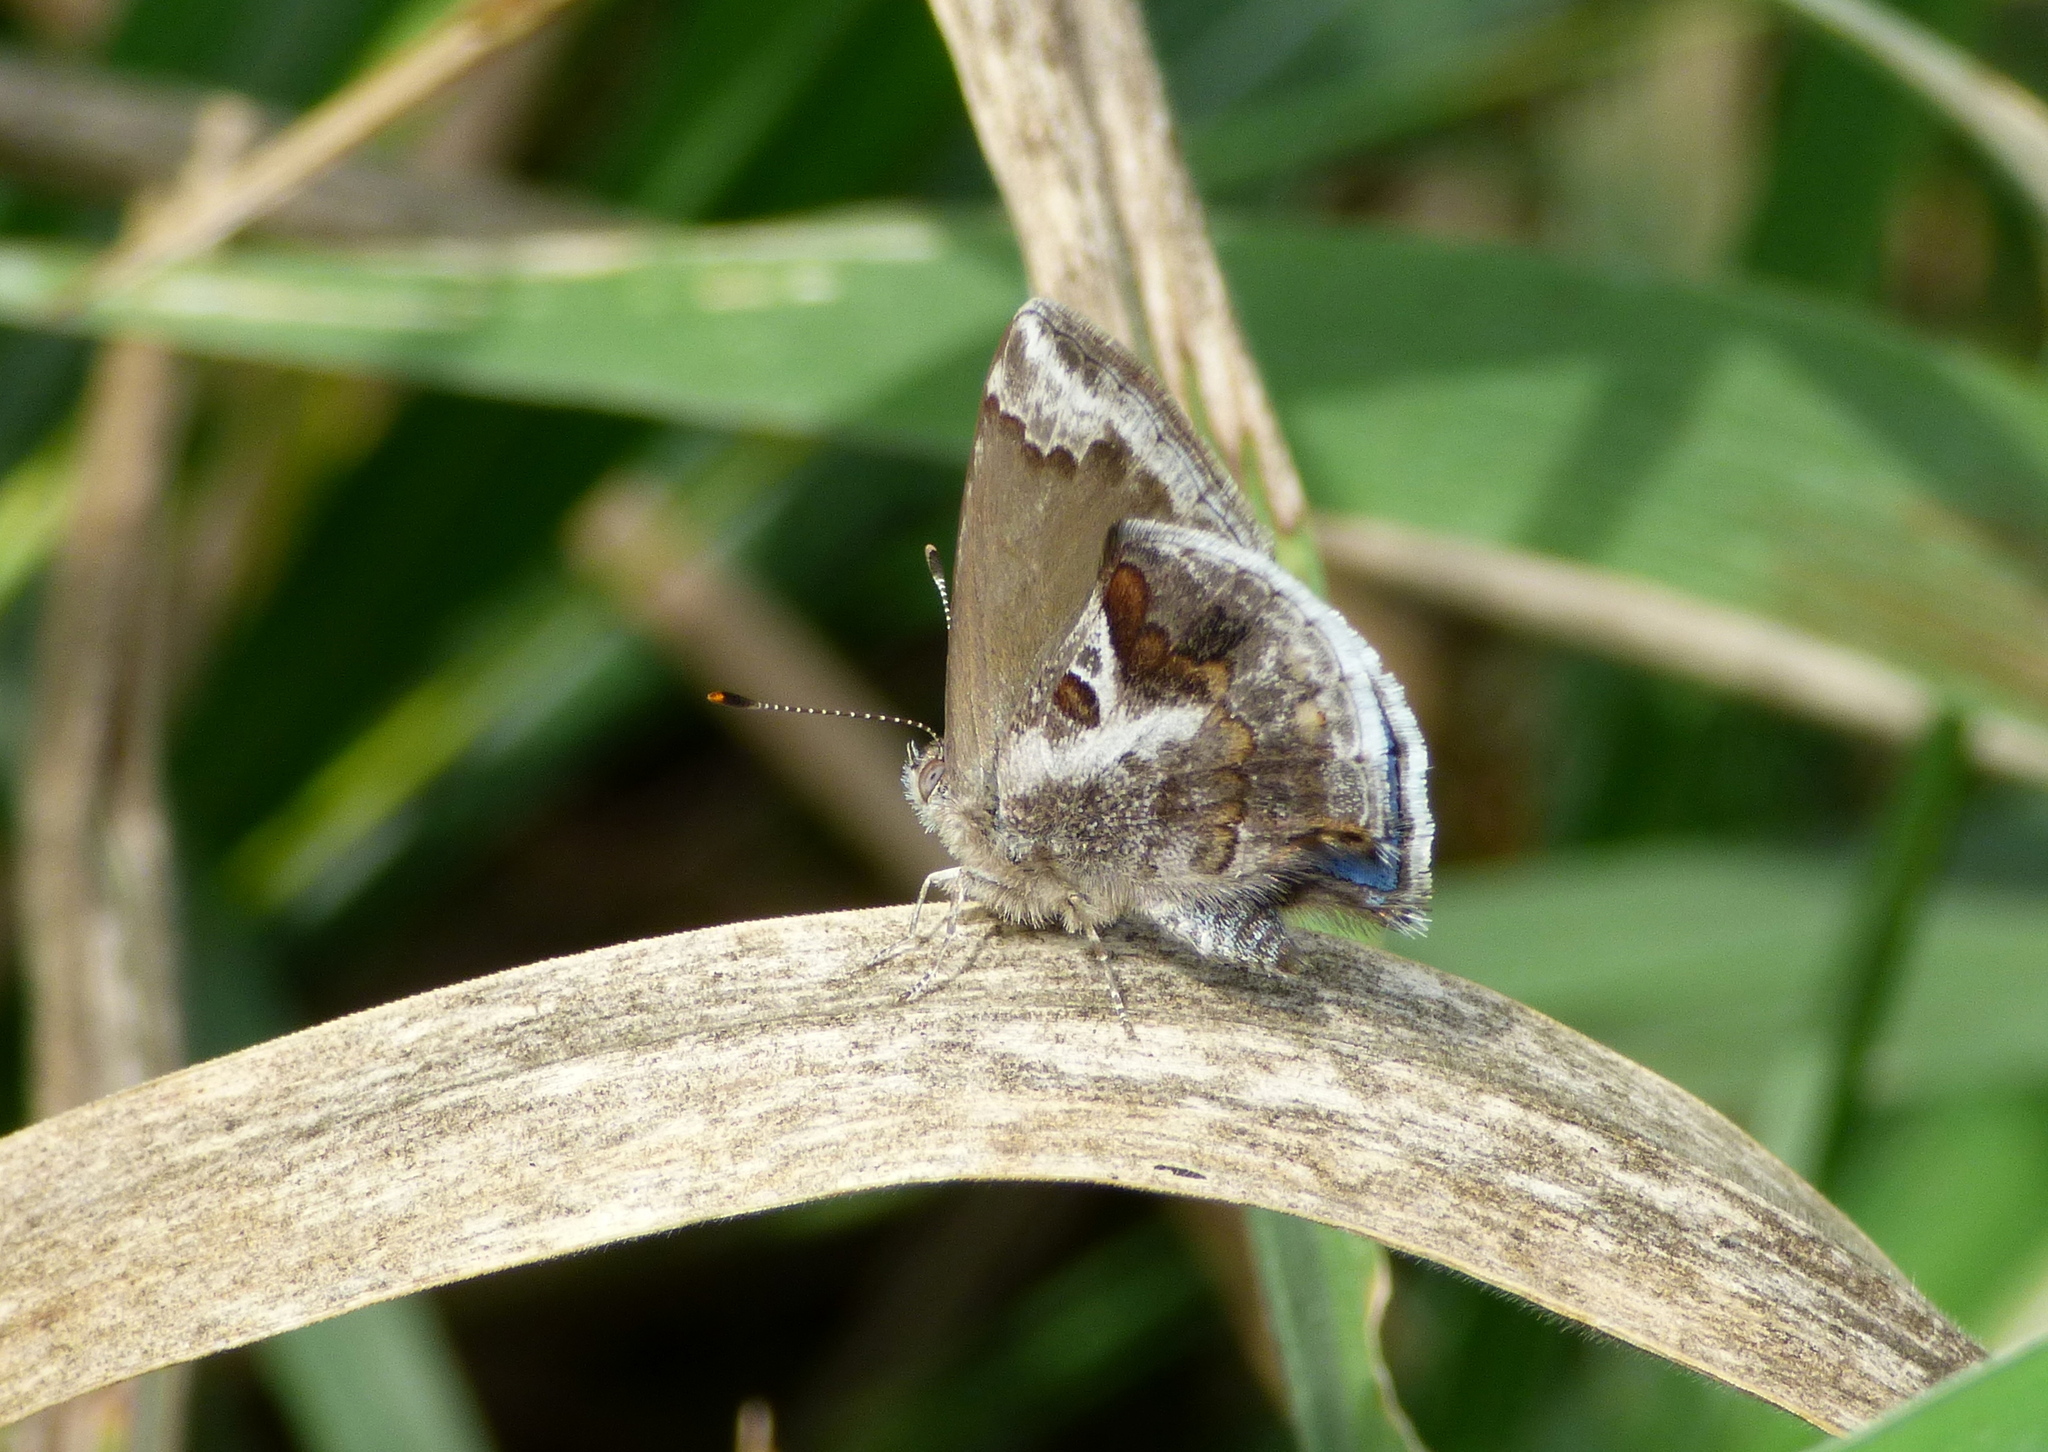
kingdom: Animalia
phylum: Arthropoda
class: Insecta
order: Lepidoptera
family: Lycaenidae
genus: Strymon
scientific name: Strymon bazochii
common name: Lantana scrub-hairstreak
